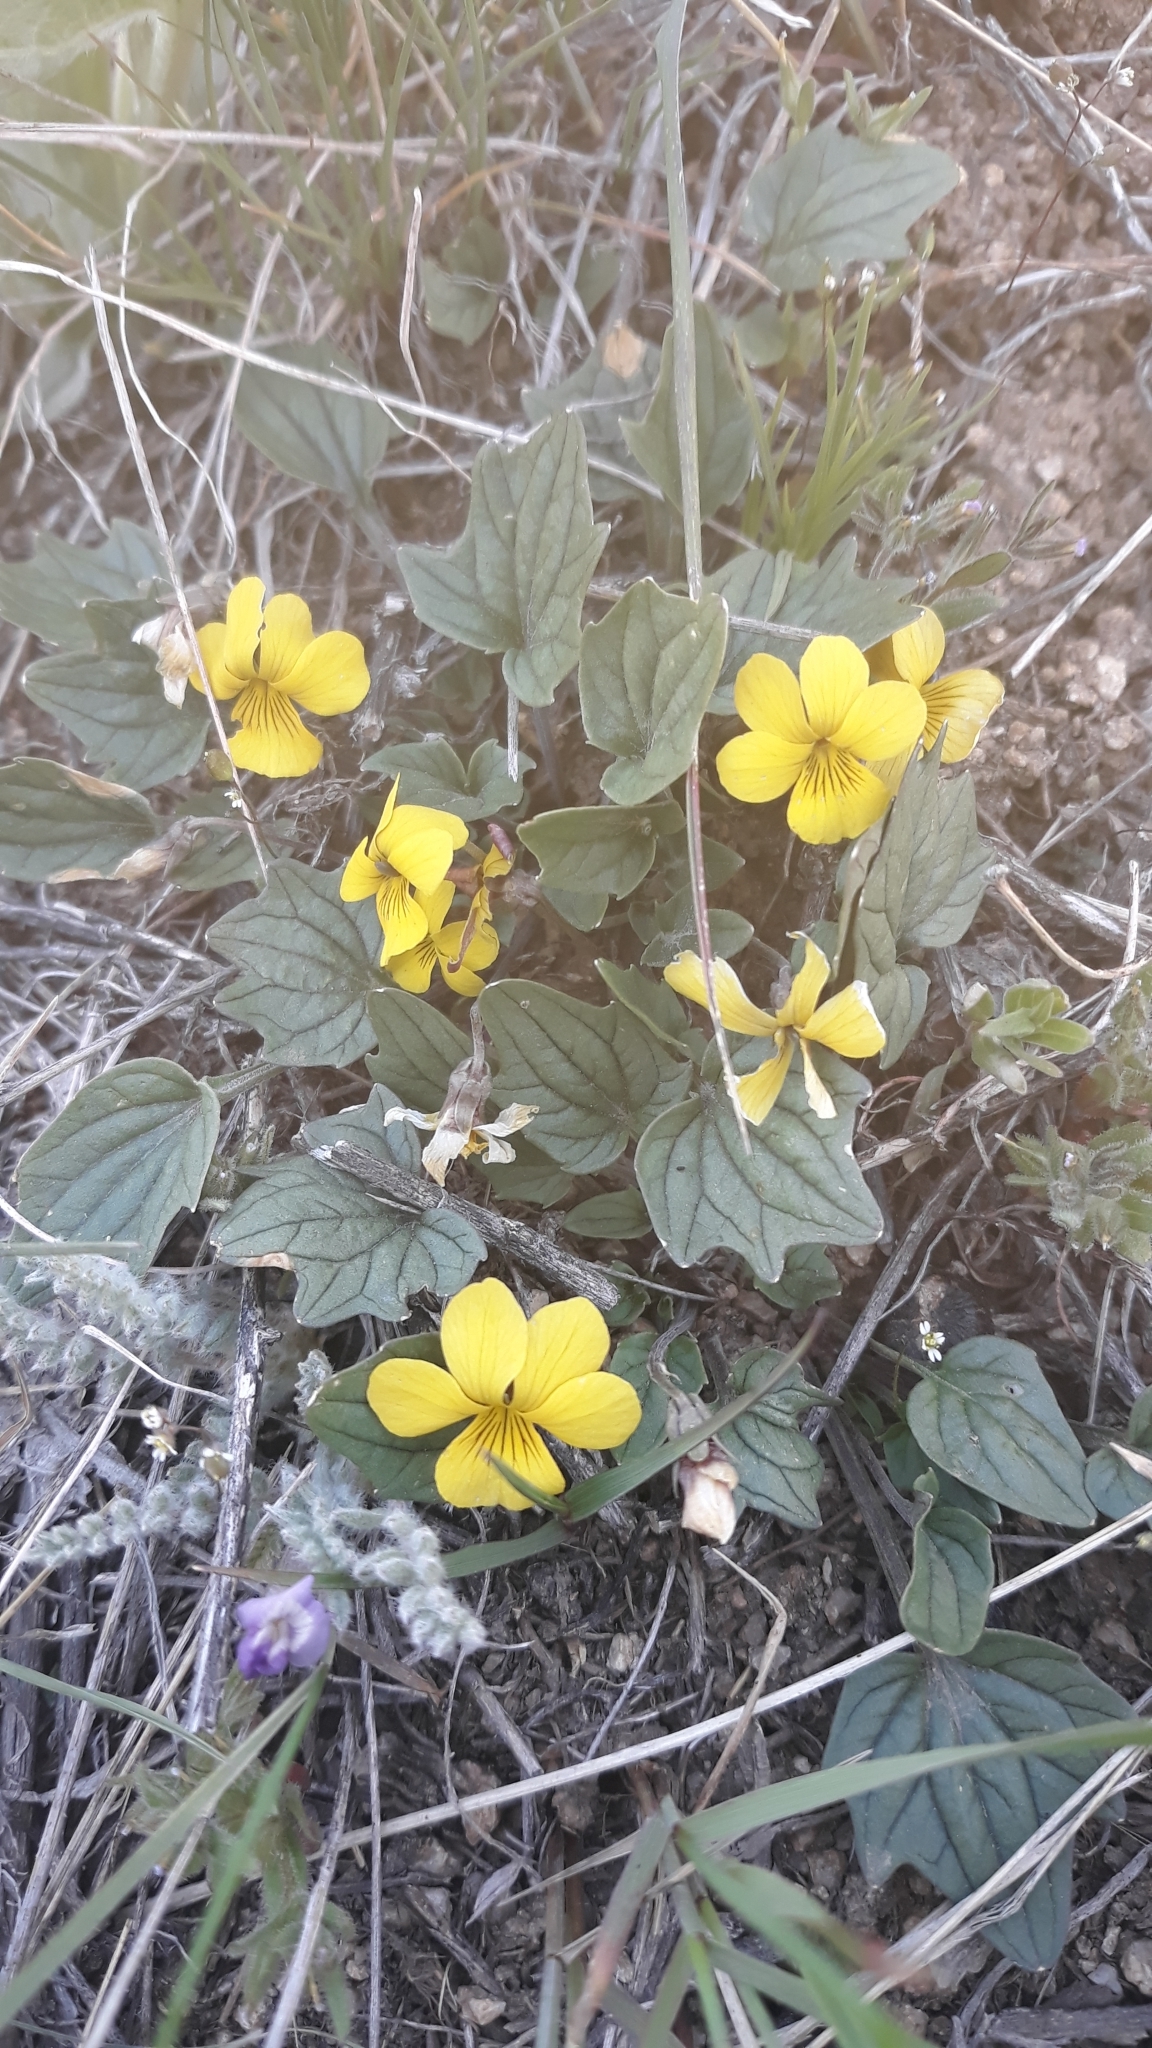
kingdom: Plantae
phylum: Tracheophyta
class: Magnoliopsida
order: Malpighiales
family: Violaceae
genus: Viola
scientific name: Viola purpurea
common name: Pine violet
